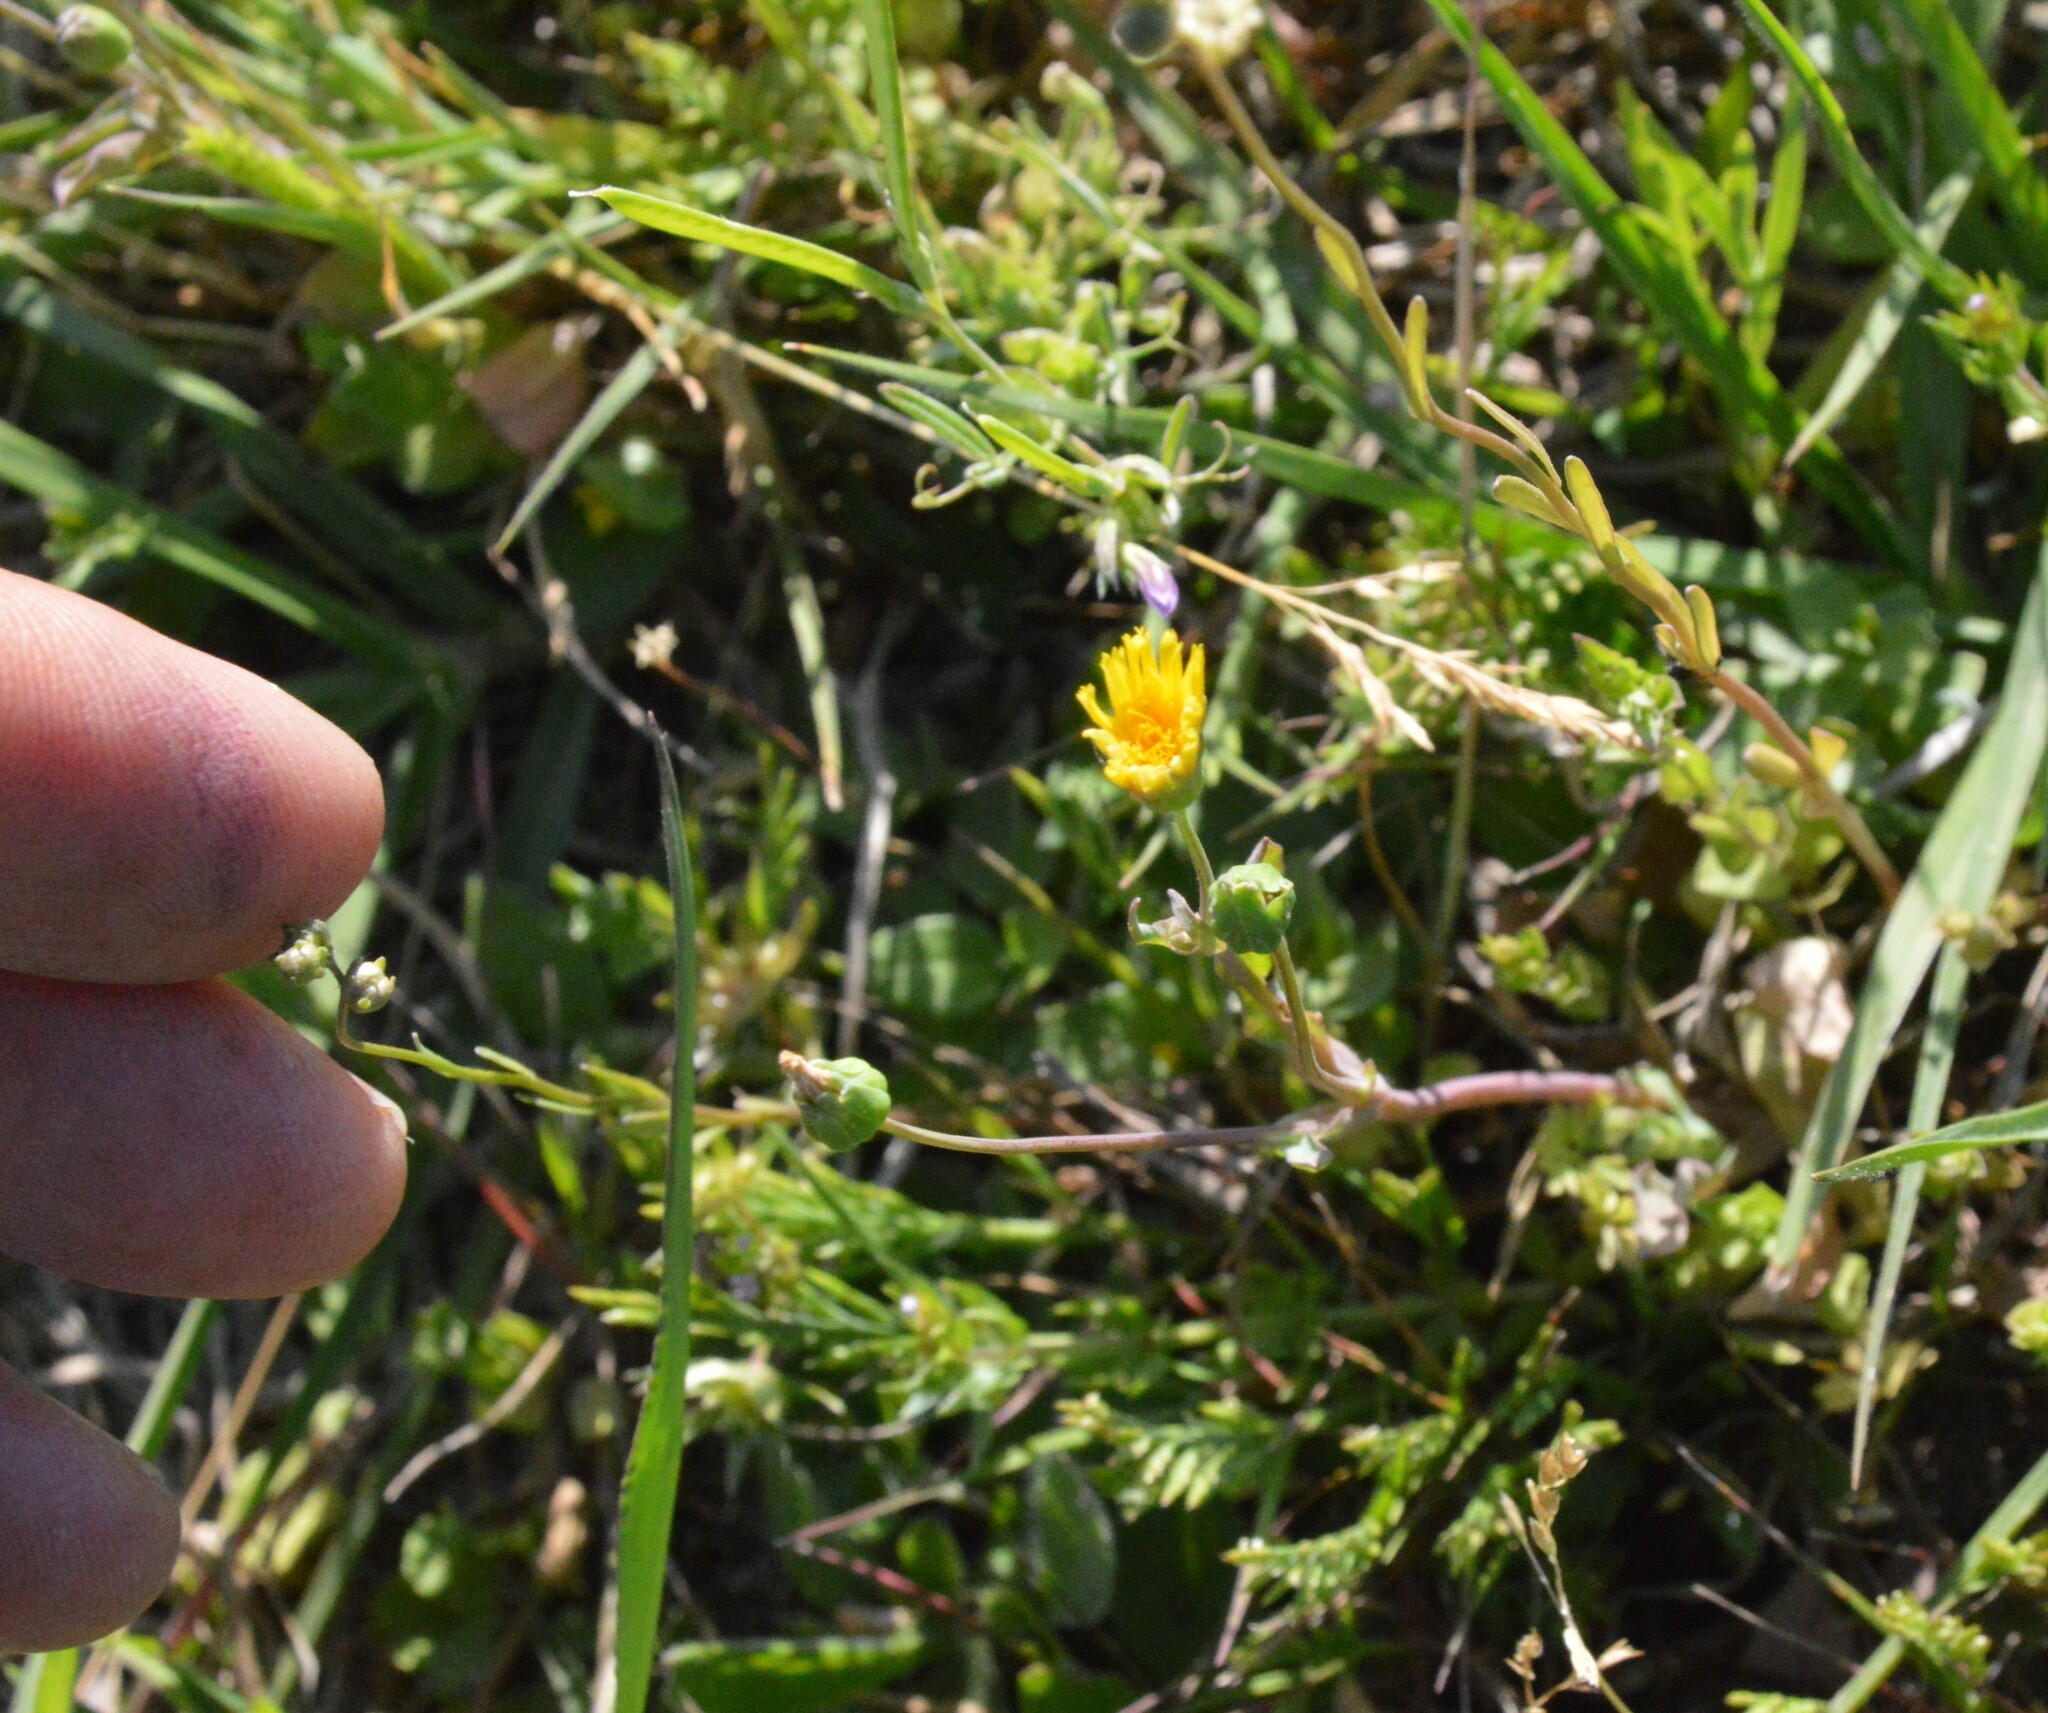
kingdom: Plantae
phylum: Tracheophyta
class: Magnoliopsida
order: Asterales
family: Asteraceae
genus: Krigia
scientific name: Krigia cespitosa
